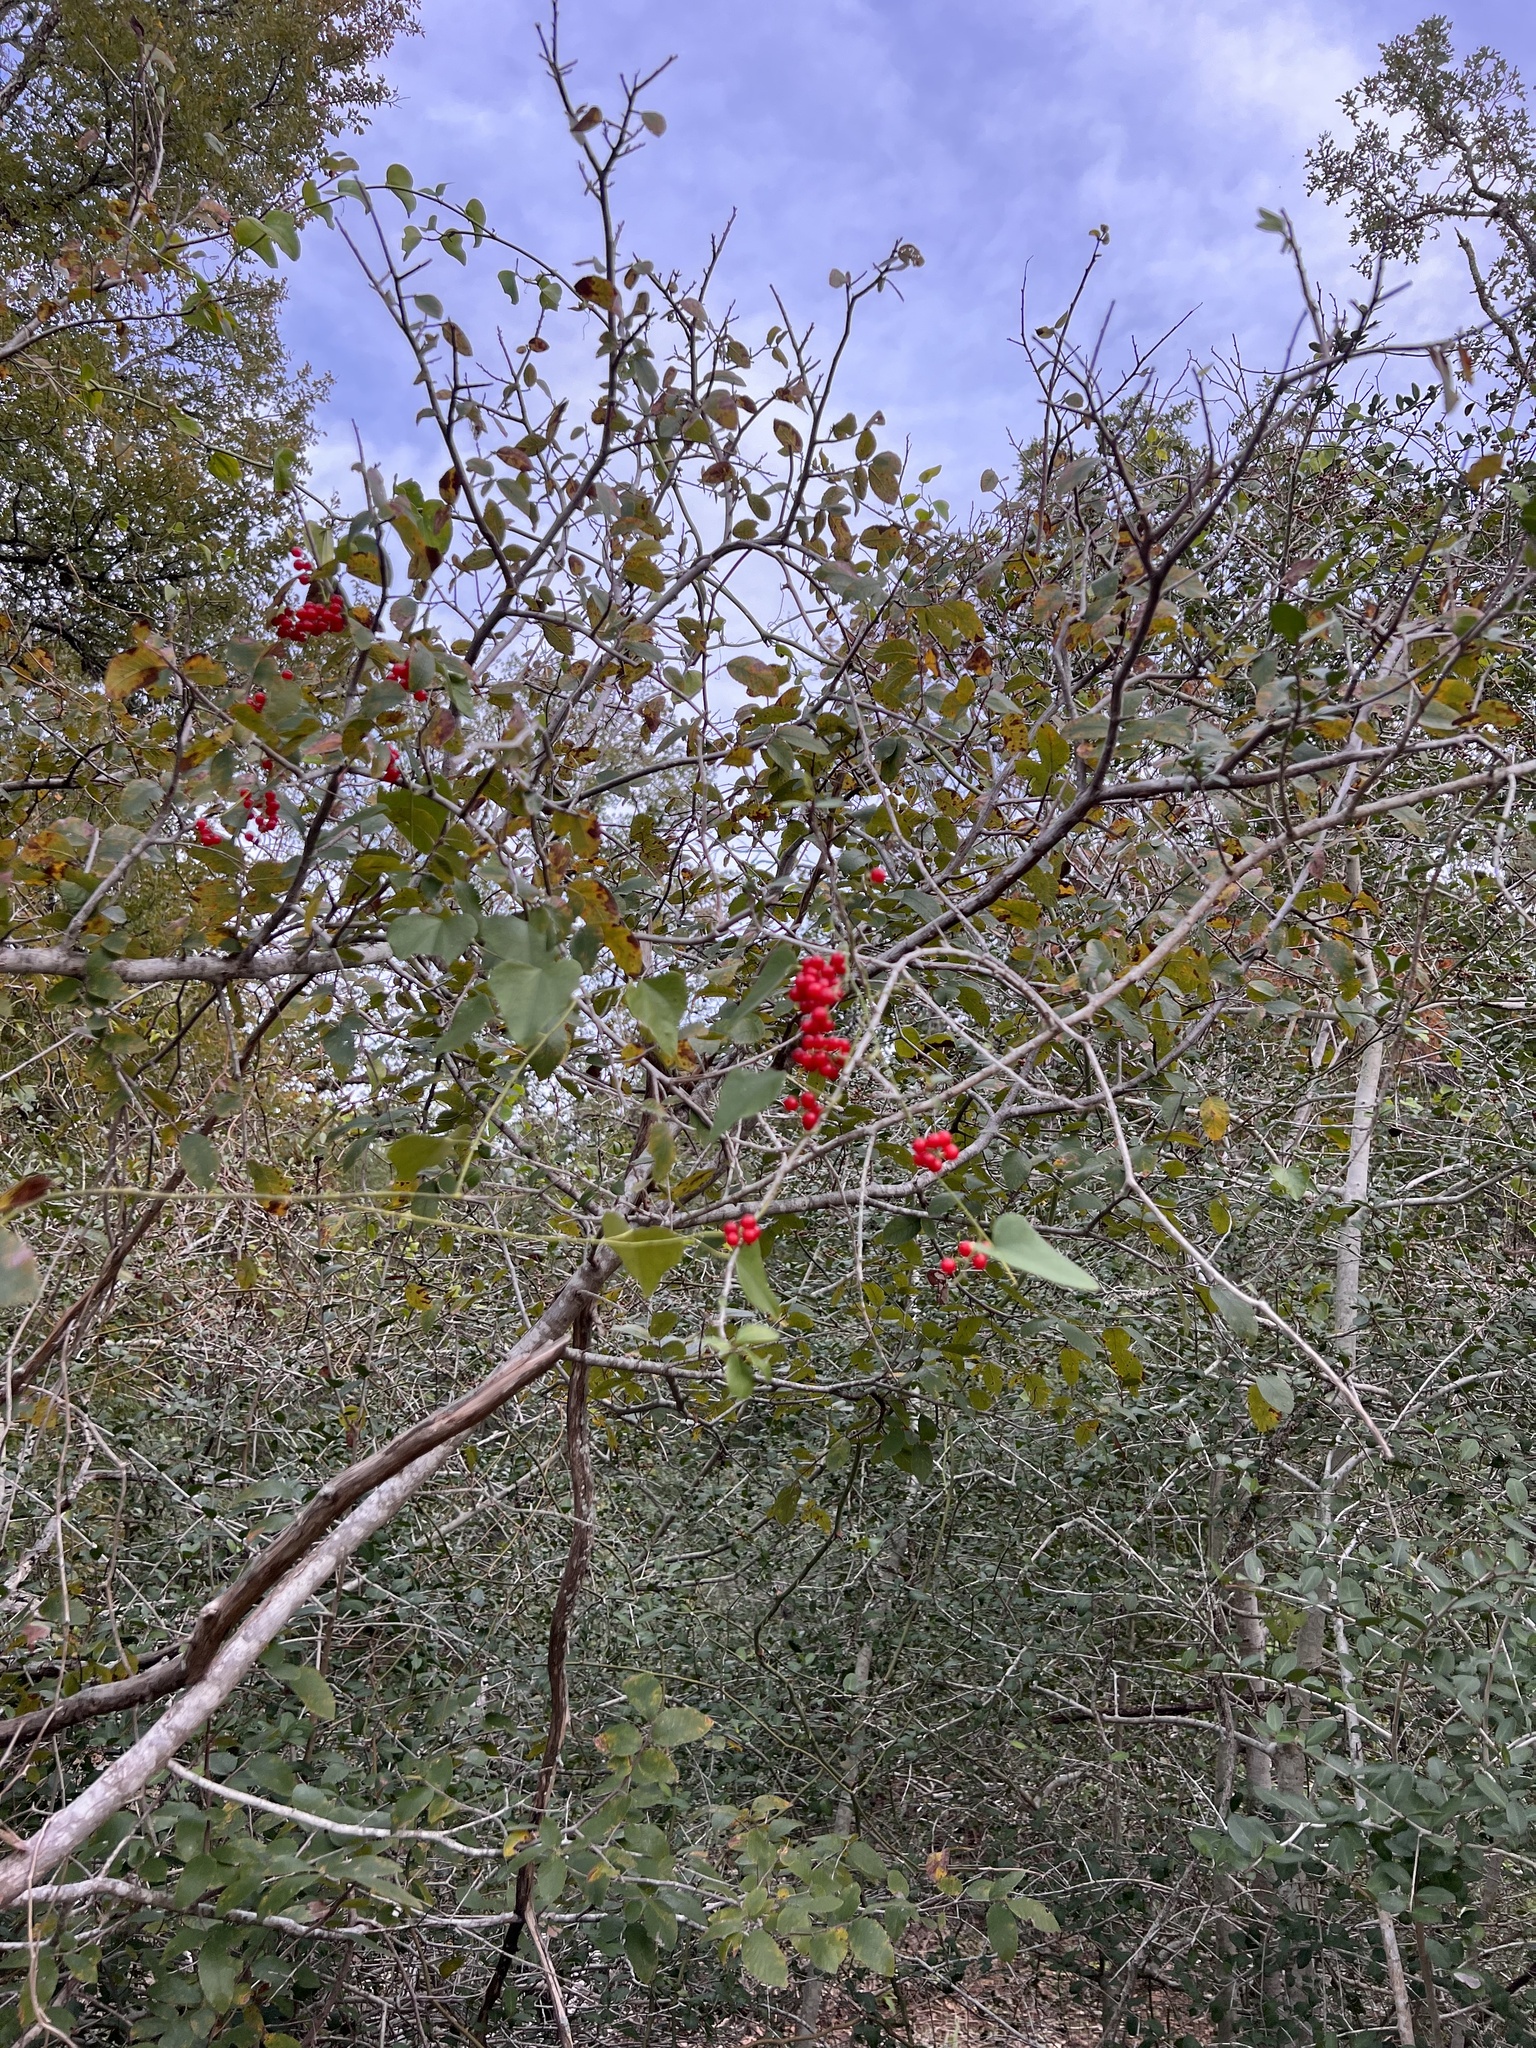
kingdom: Plantae
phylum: Tracheophyta
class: Magnoliopsida
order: Ranunculales
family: Menispermaceae
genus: Cocculus
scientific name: Cocculus carolinus
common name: Carolina moonseed
